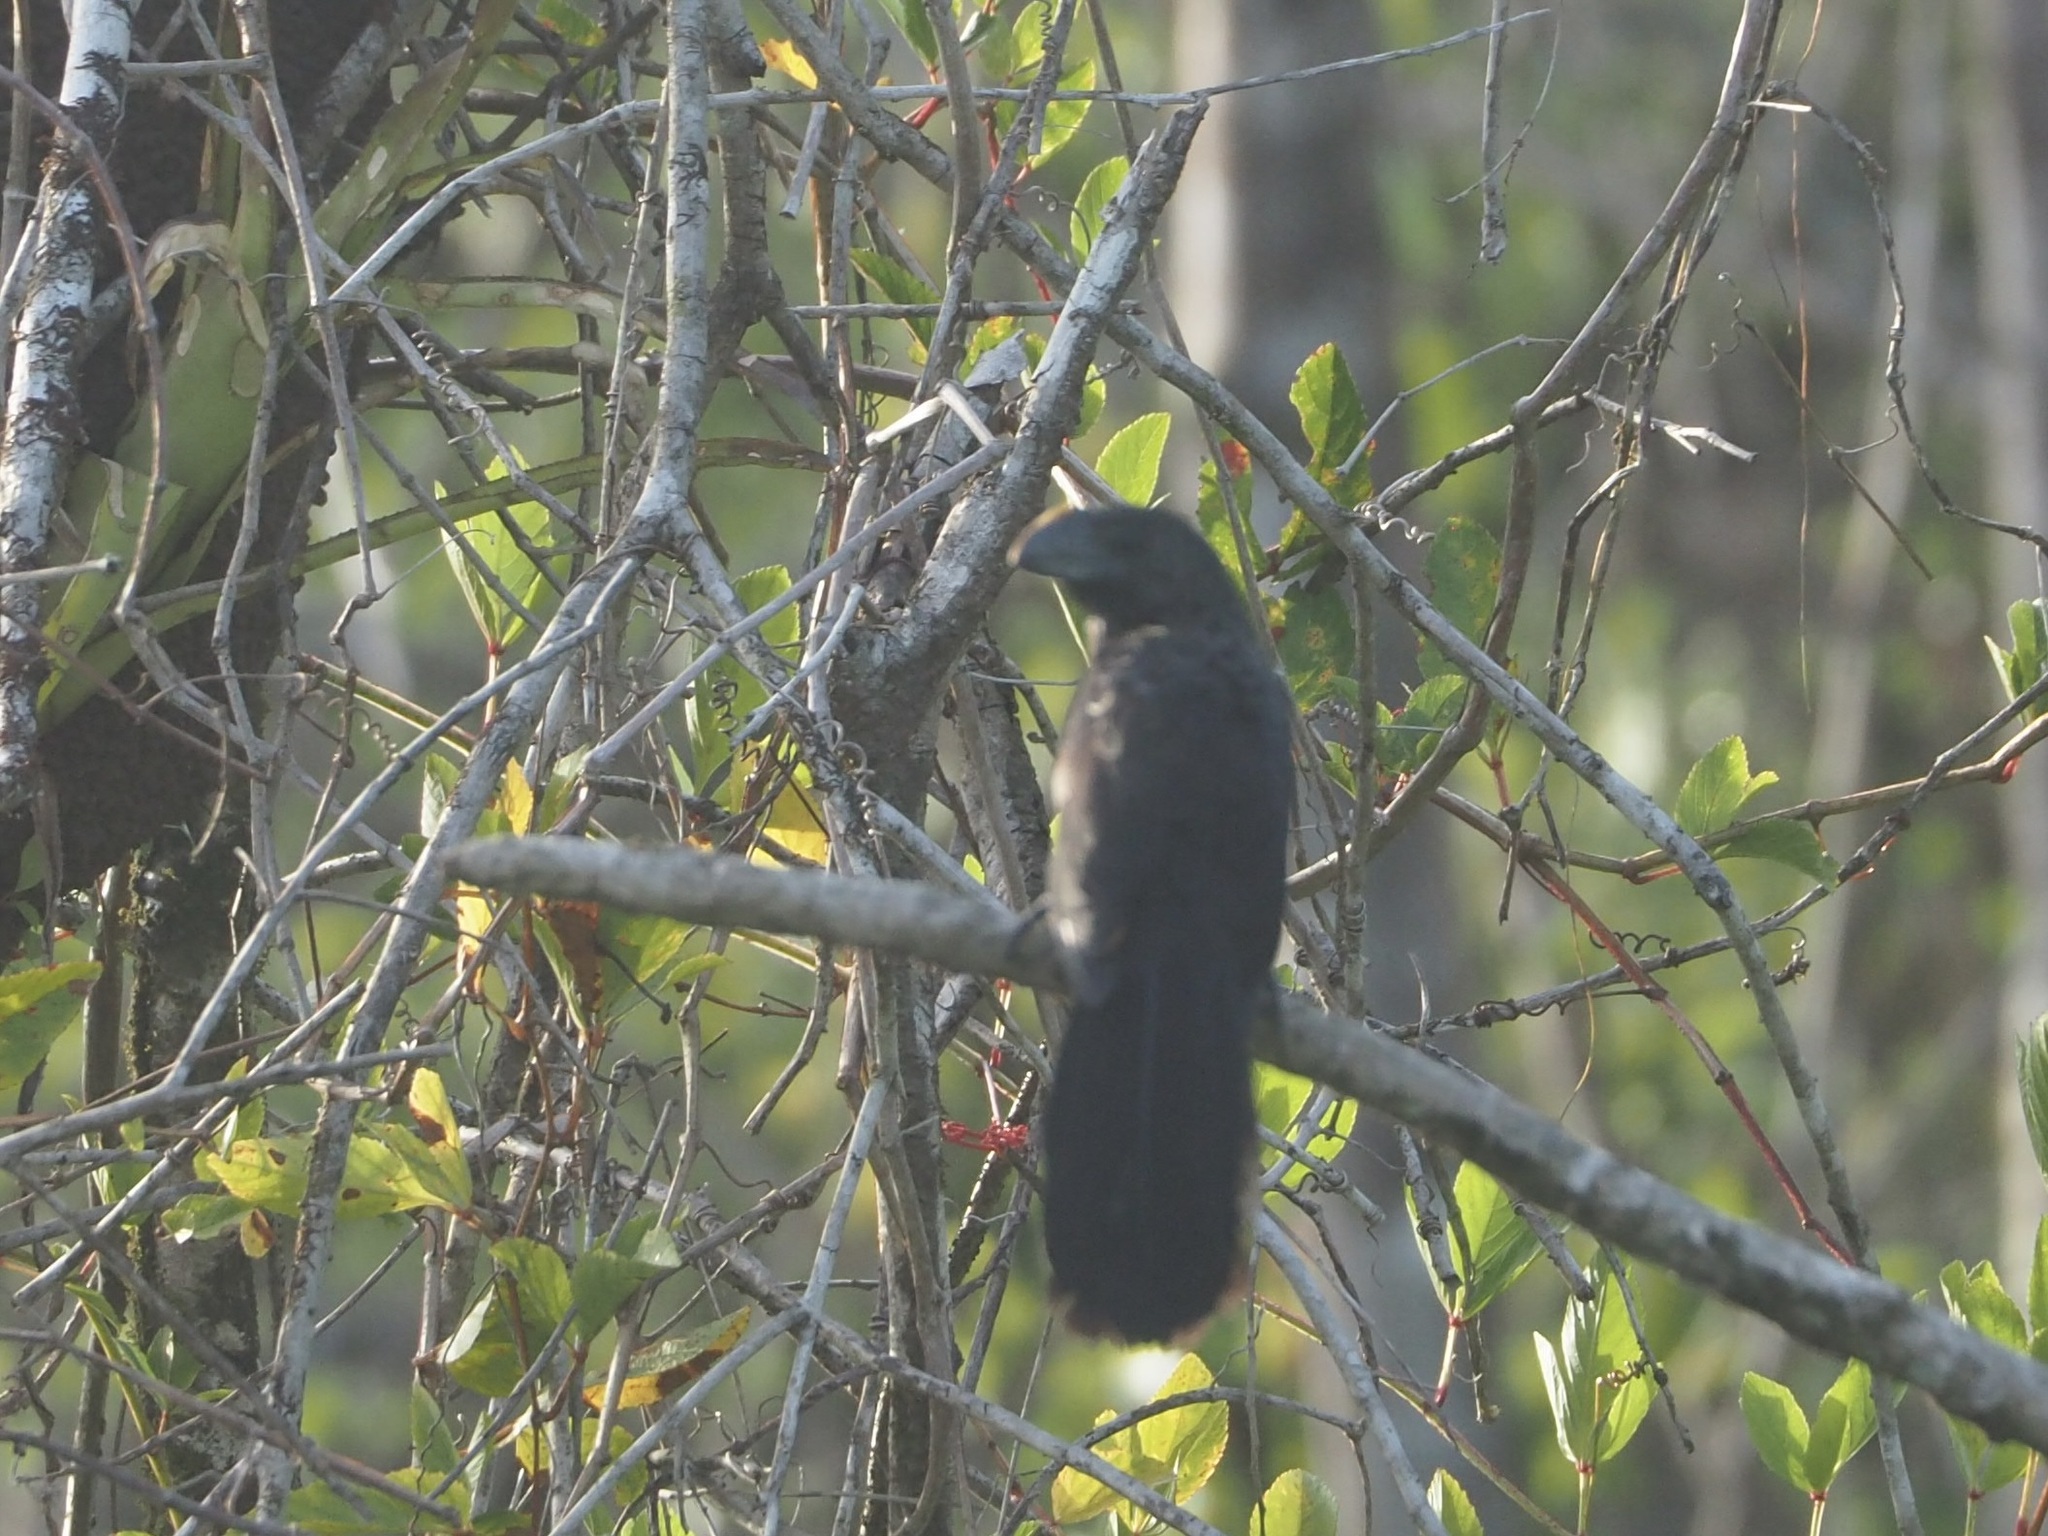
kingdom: Animalia
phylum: Chordata
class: Aves
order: Cuculiformes
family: Cuculidae
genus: Crotophaga
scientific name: Crotophaga ani
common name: Smooth-billed ani
